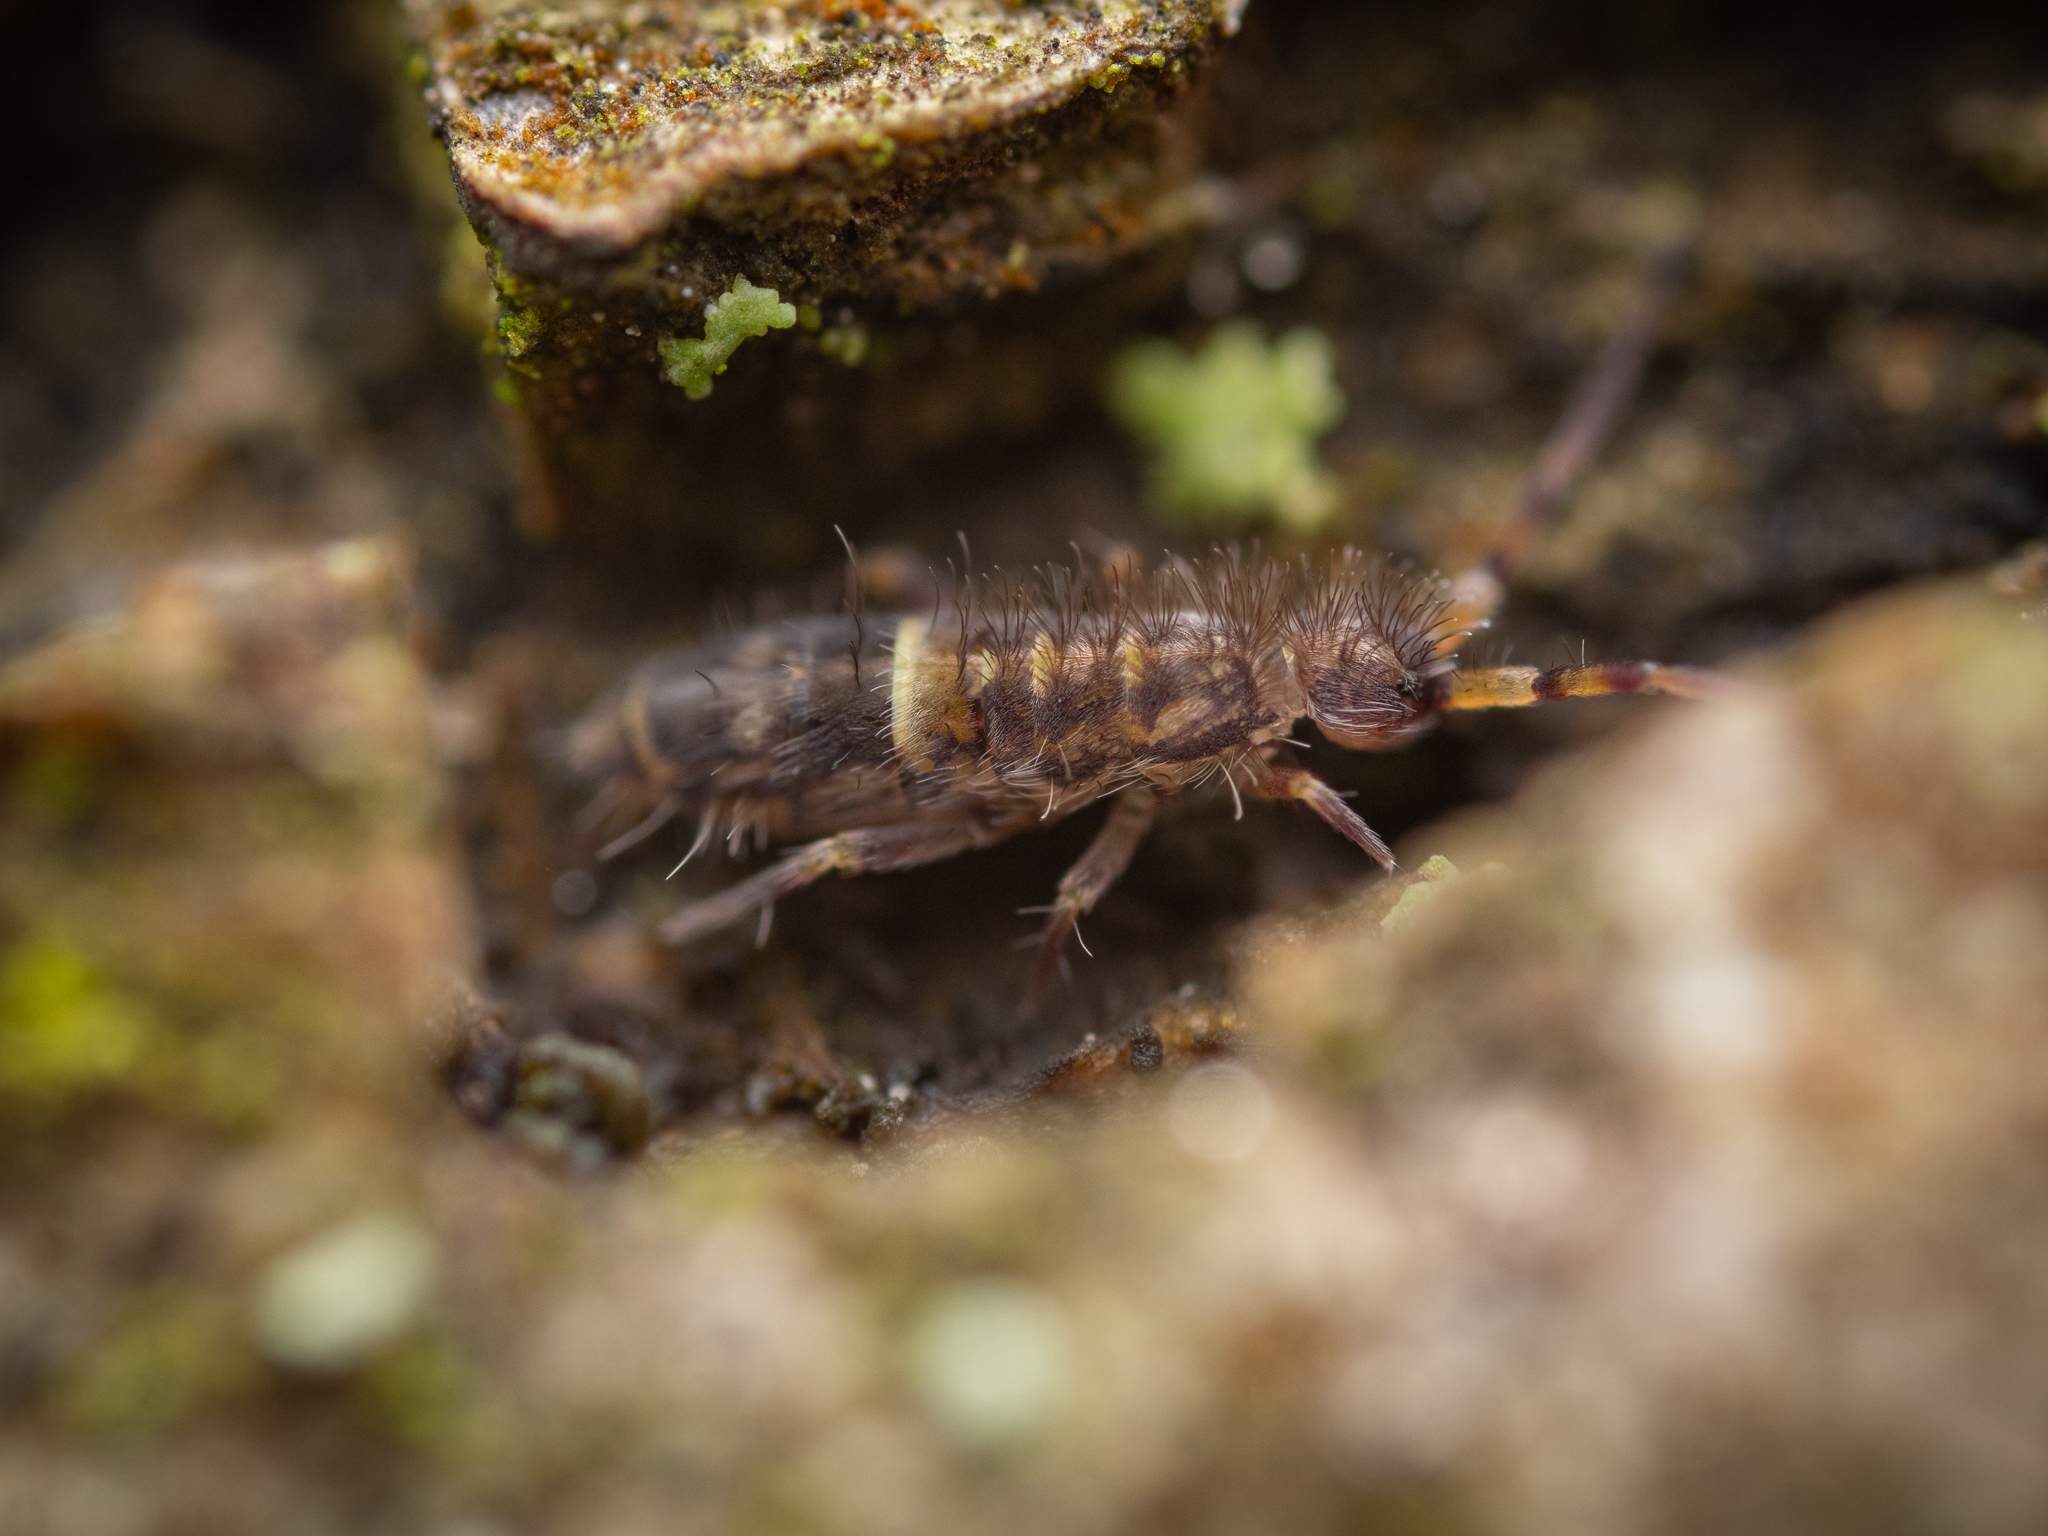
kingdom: Animalia
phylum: Arthropoda
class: Collembola
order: Entomobryomorpha
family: Orchesellidae
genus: Orchesella
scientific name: Orchesella cincta
